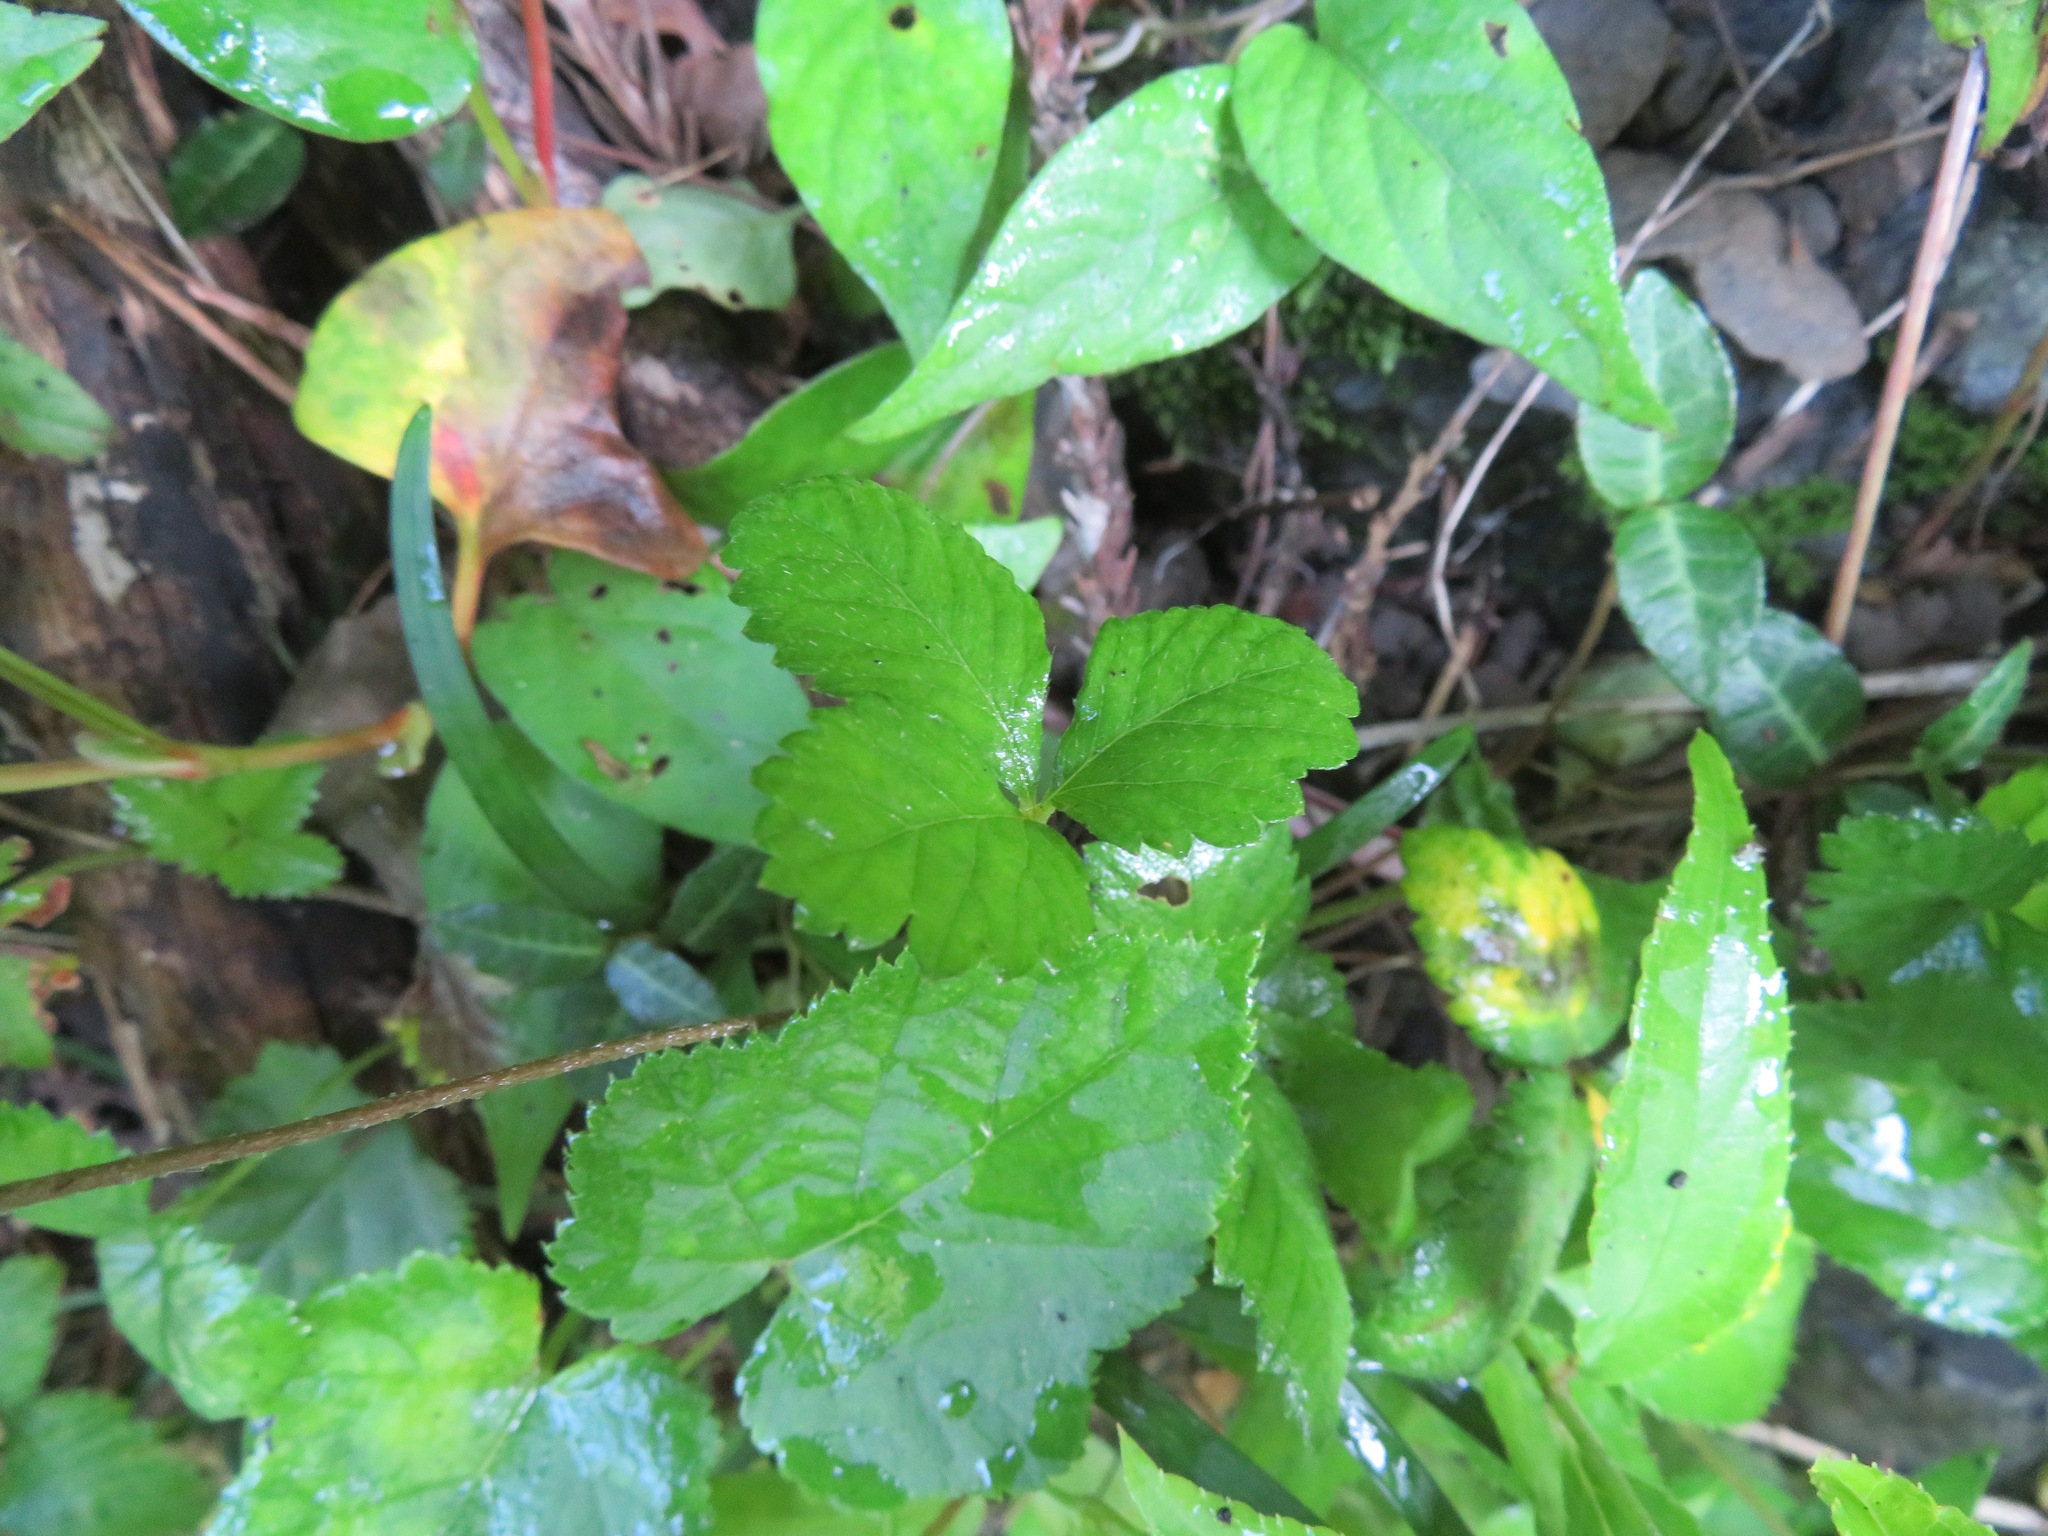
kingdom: Plantae
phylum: Tracheophyta
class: Magnoliopsida
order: Rosales
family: Rosaceae
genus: Potentilla
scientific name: Potentilla indica
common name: Yellow-flowered strawberry
